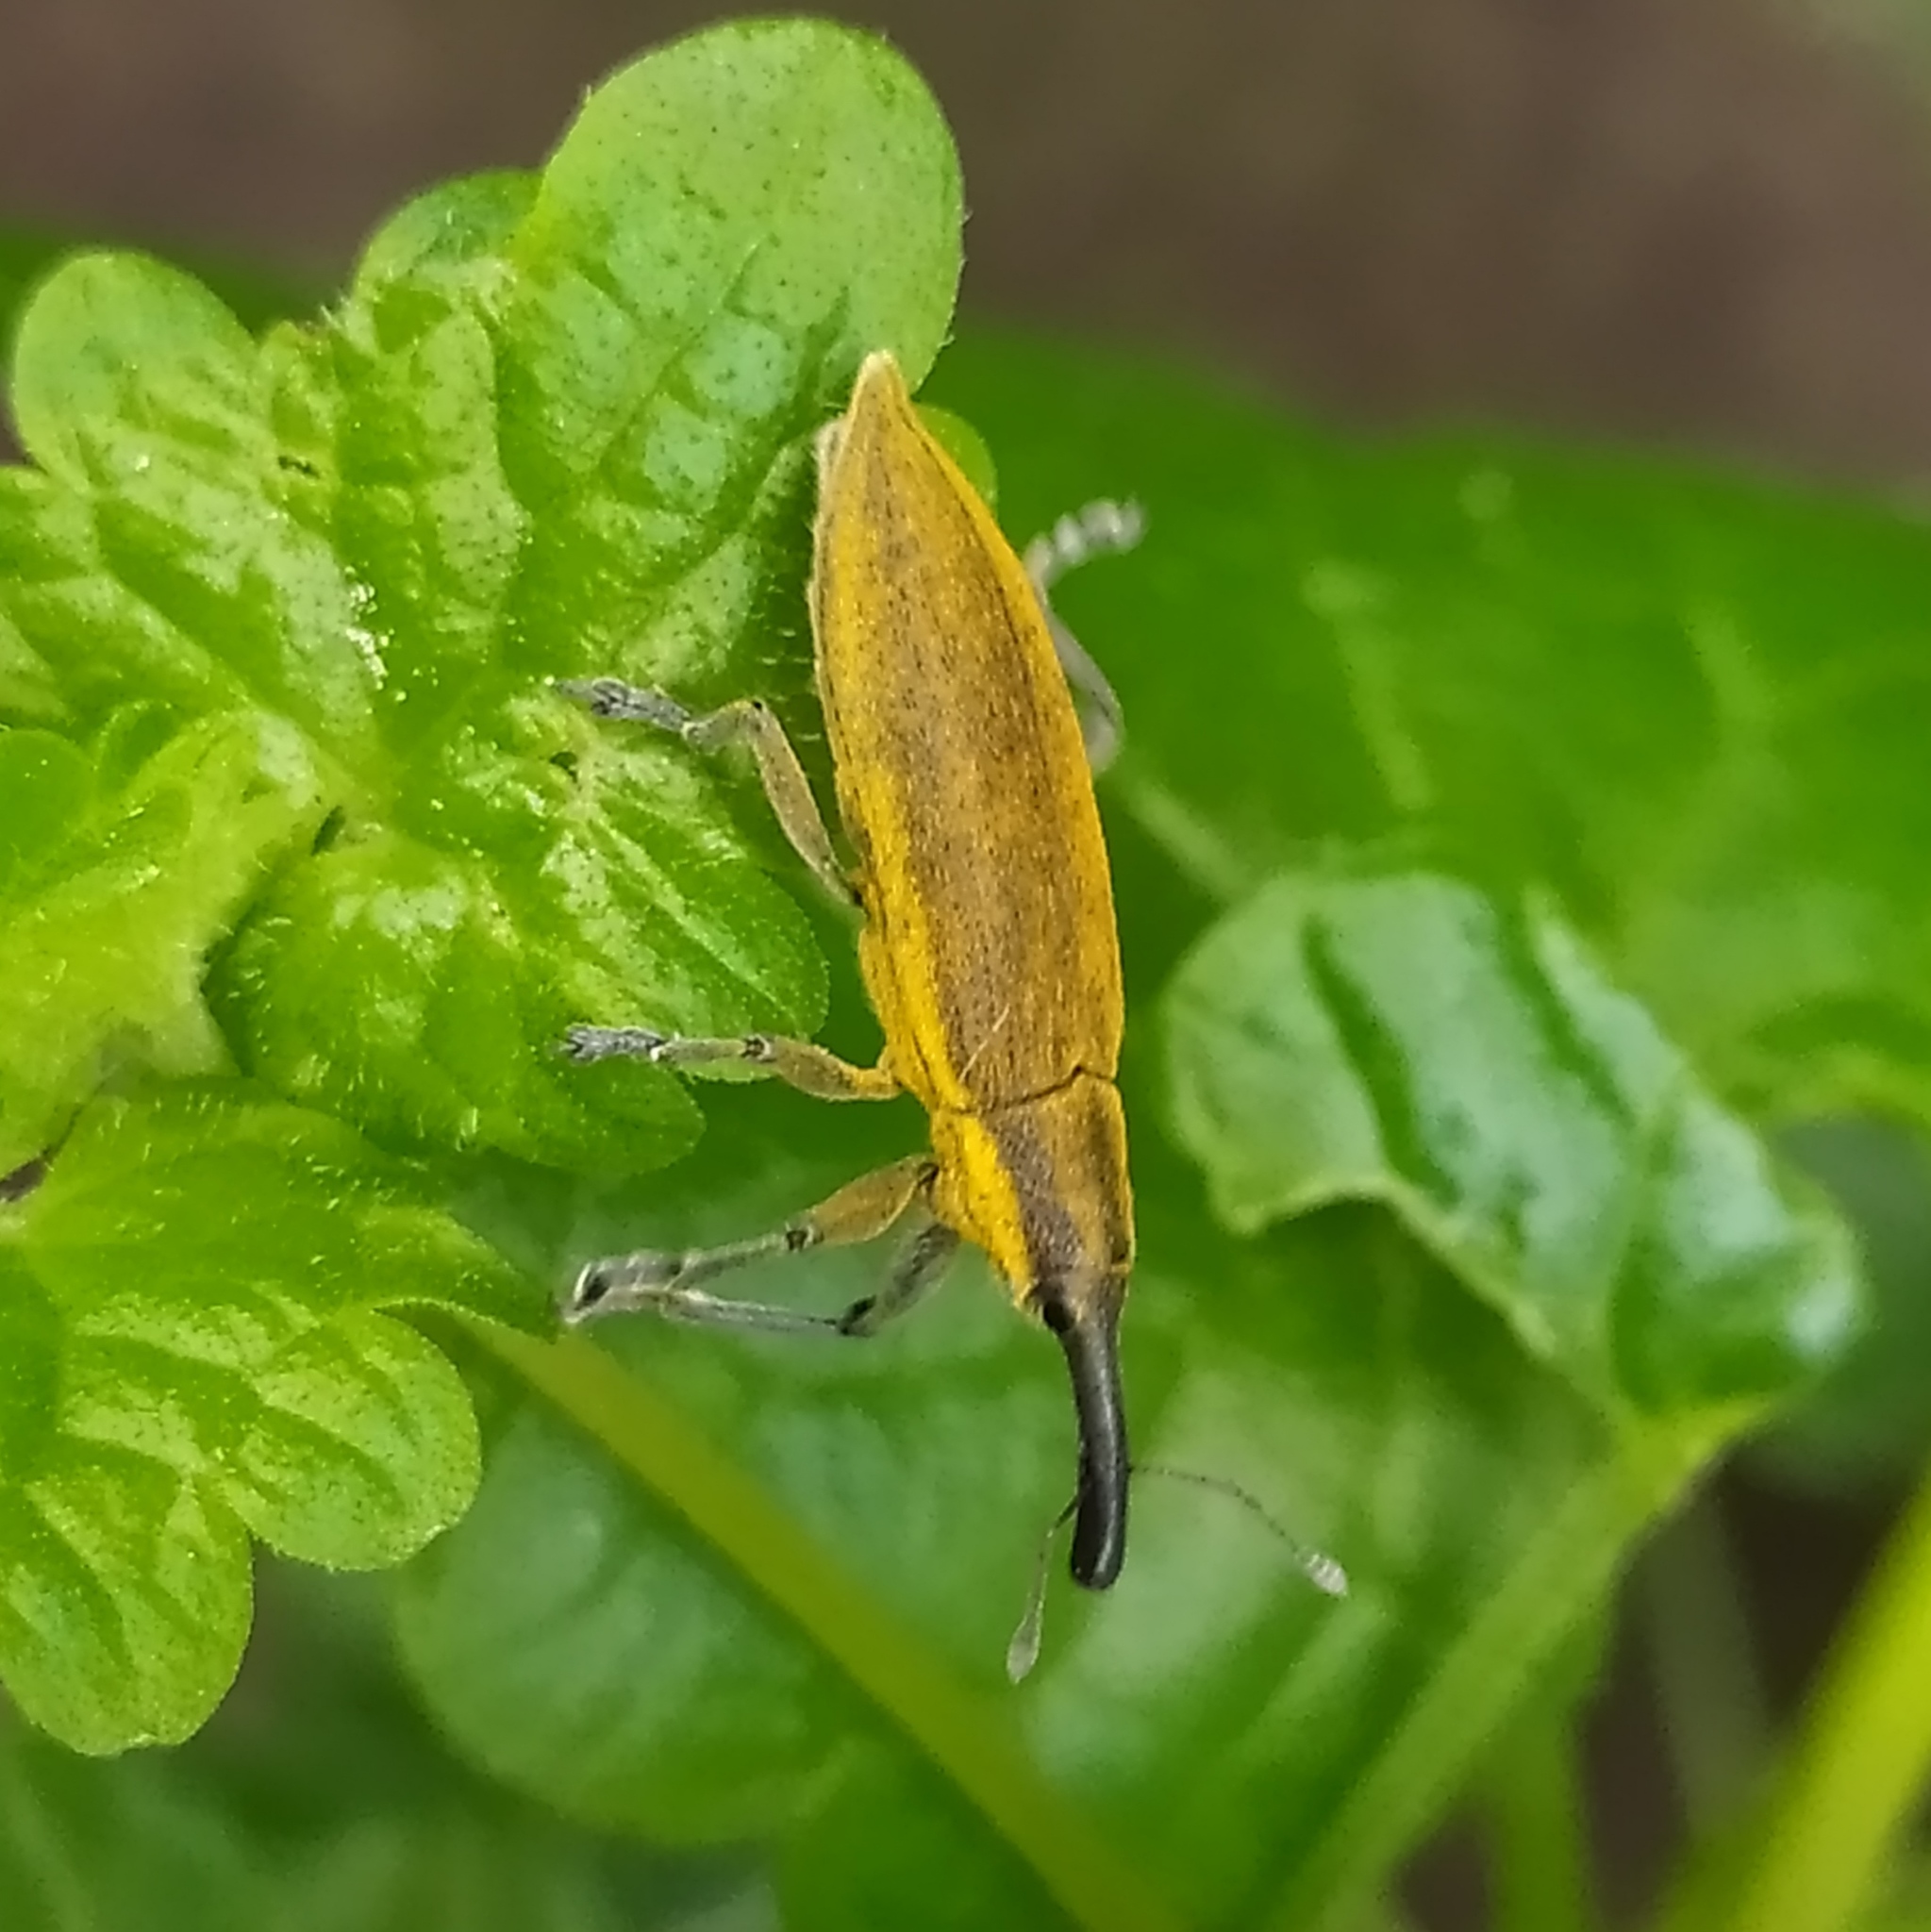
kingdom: Animalia
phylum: Arthropoda
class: Insecta
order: Coleoptera
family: Curculionidae
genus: Lixus
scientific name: Lixus iridis
